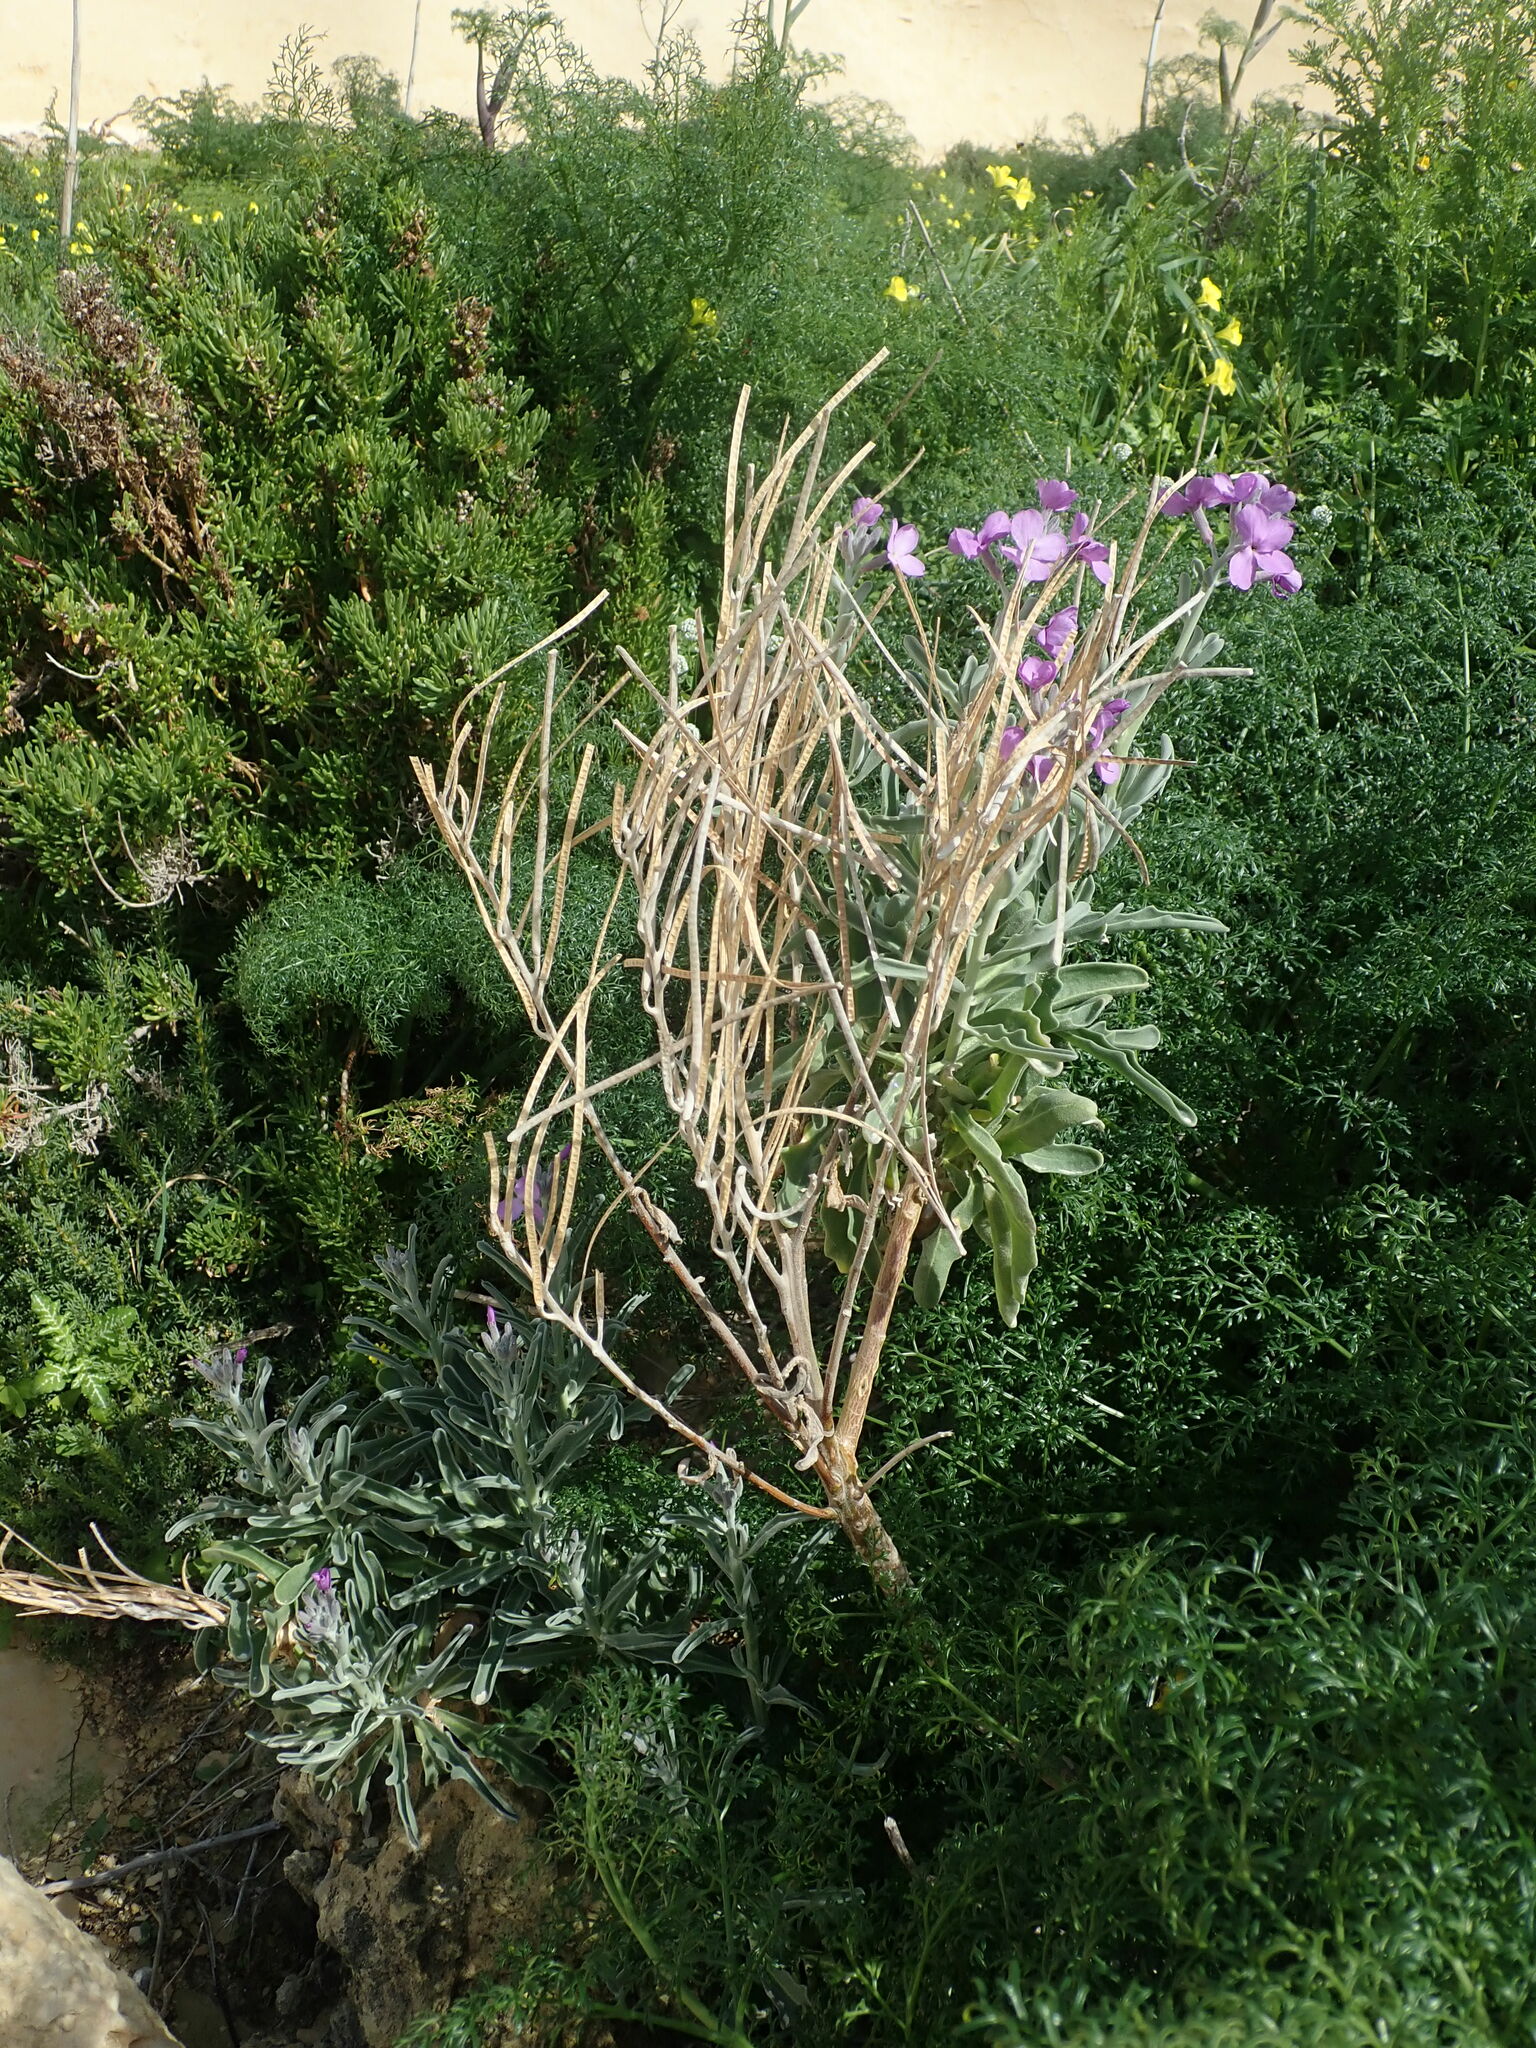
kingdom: Plantae
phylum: Tracheophyta
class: Magnoliopsida
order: Brassicales
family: Brassicaceae
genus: Matthiola
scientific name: Matthiola incana
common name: Hoary stock
